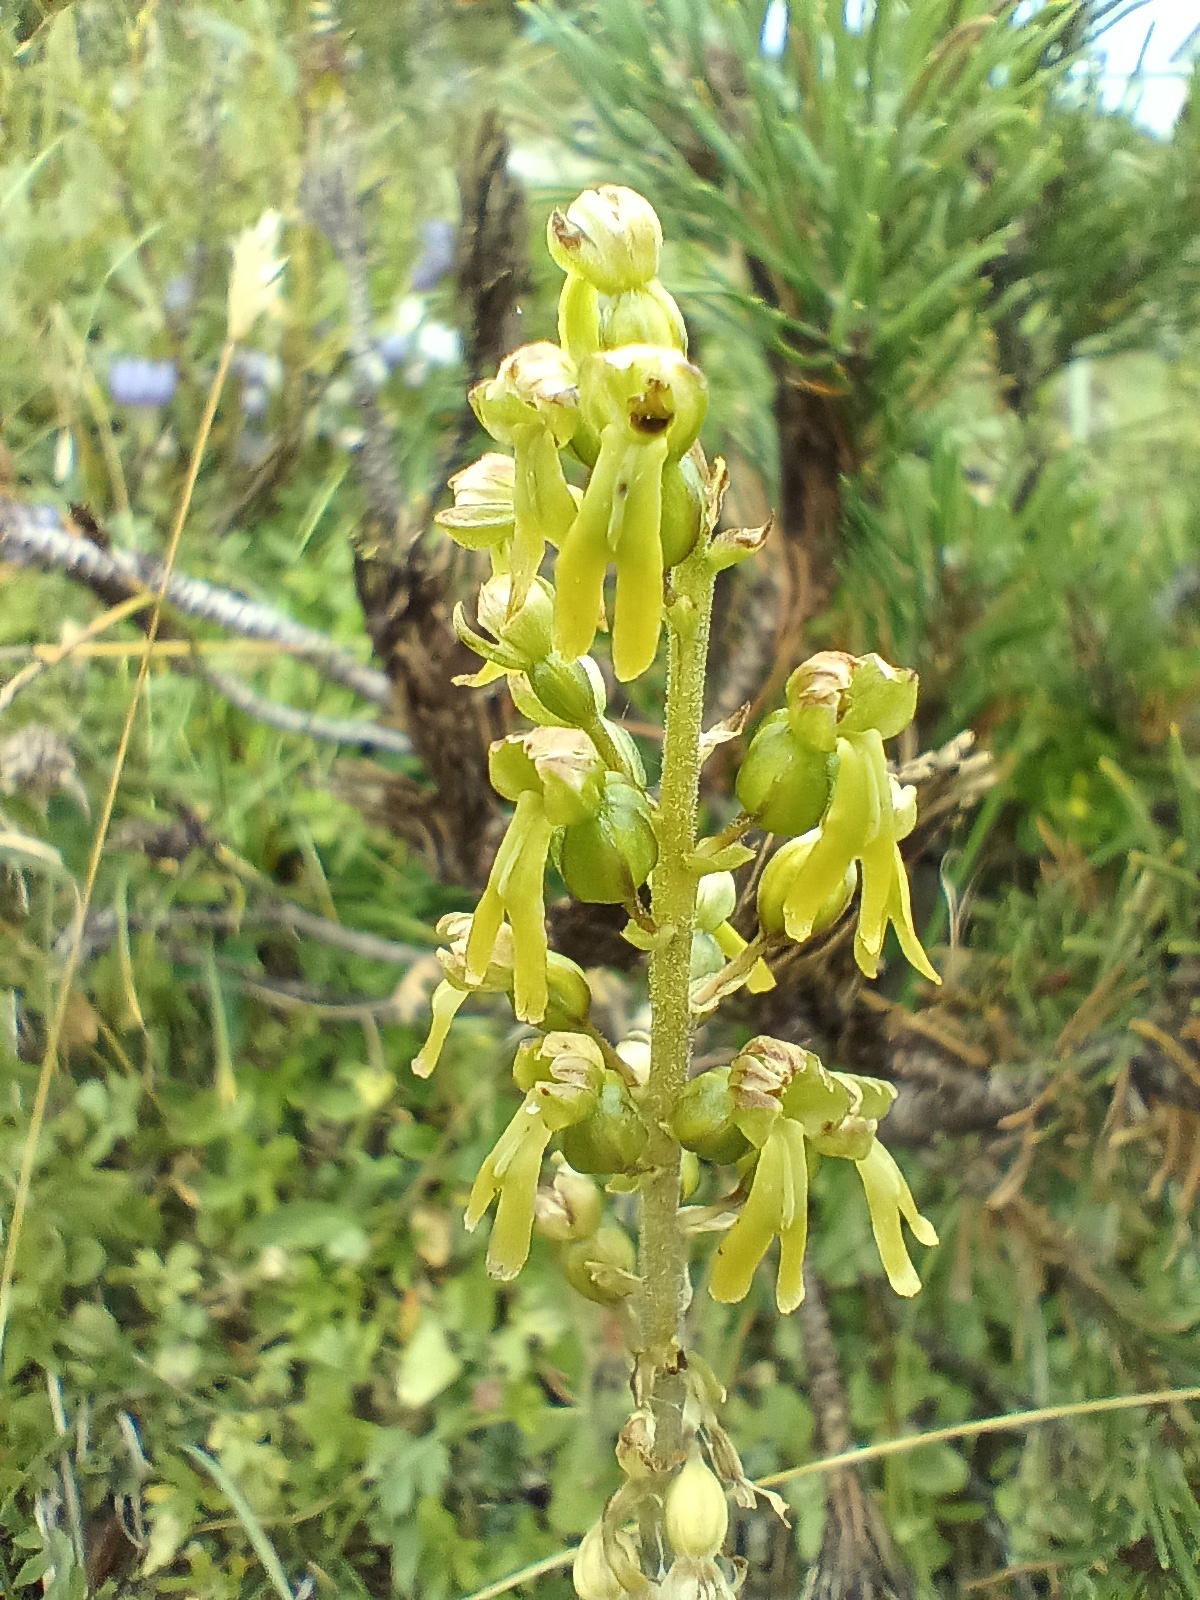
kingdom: Plantae
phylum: Tracheophyta
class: Liliopsida
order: Asparagales
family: Orchidaceae
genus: Neottia
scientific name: Neottia ovata
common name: Common twayblade
